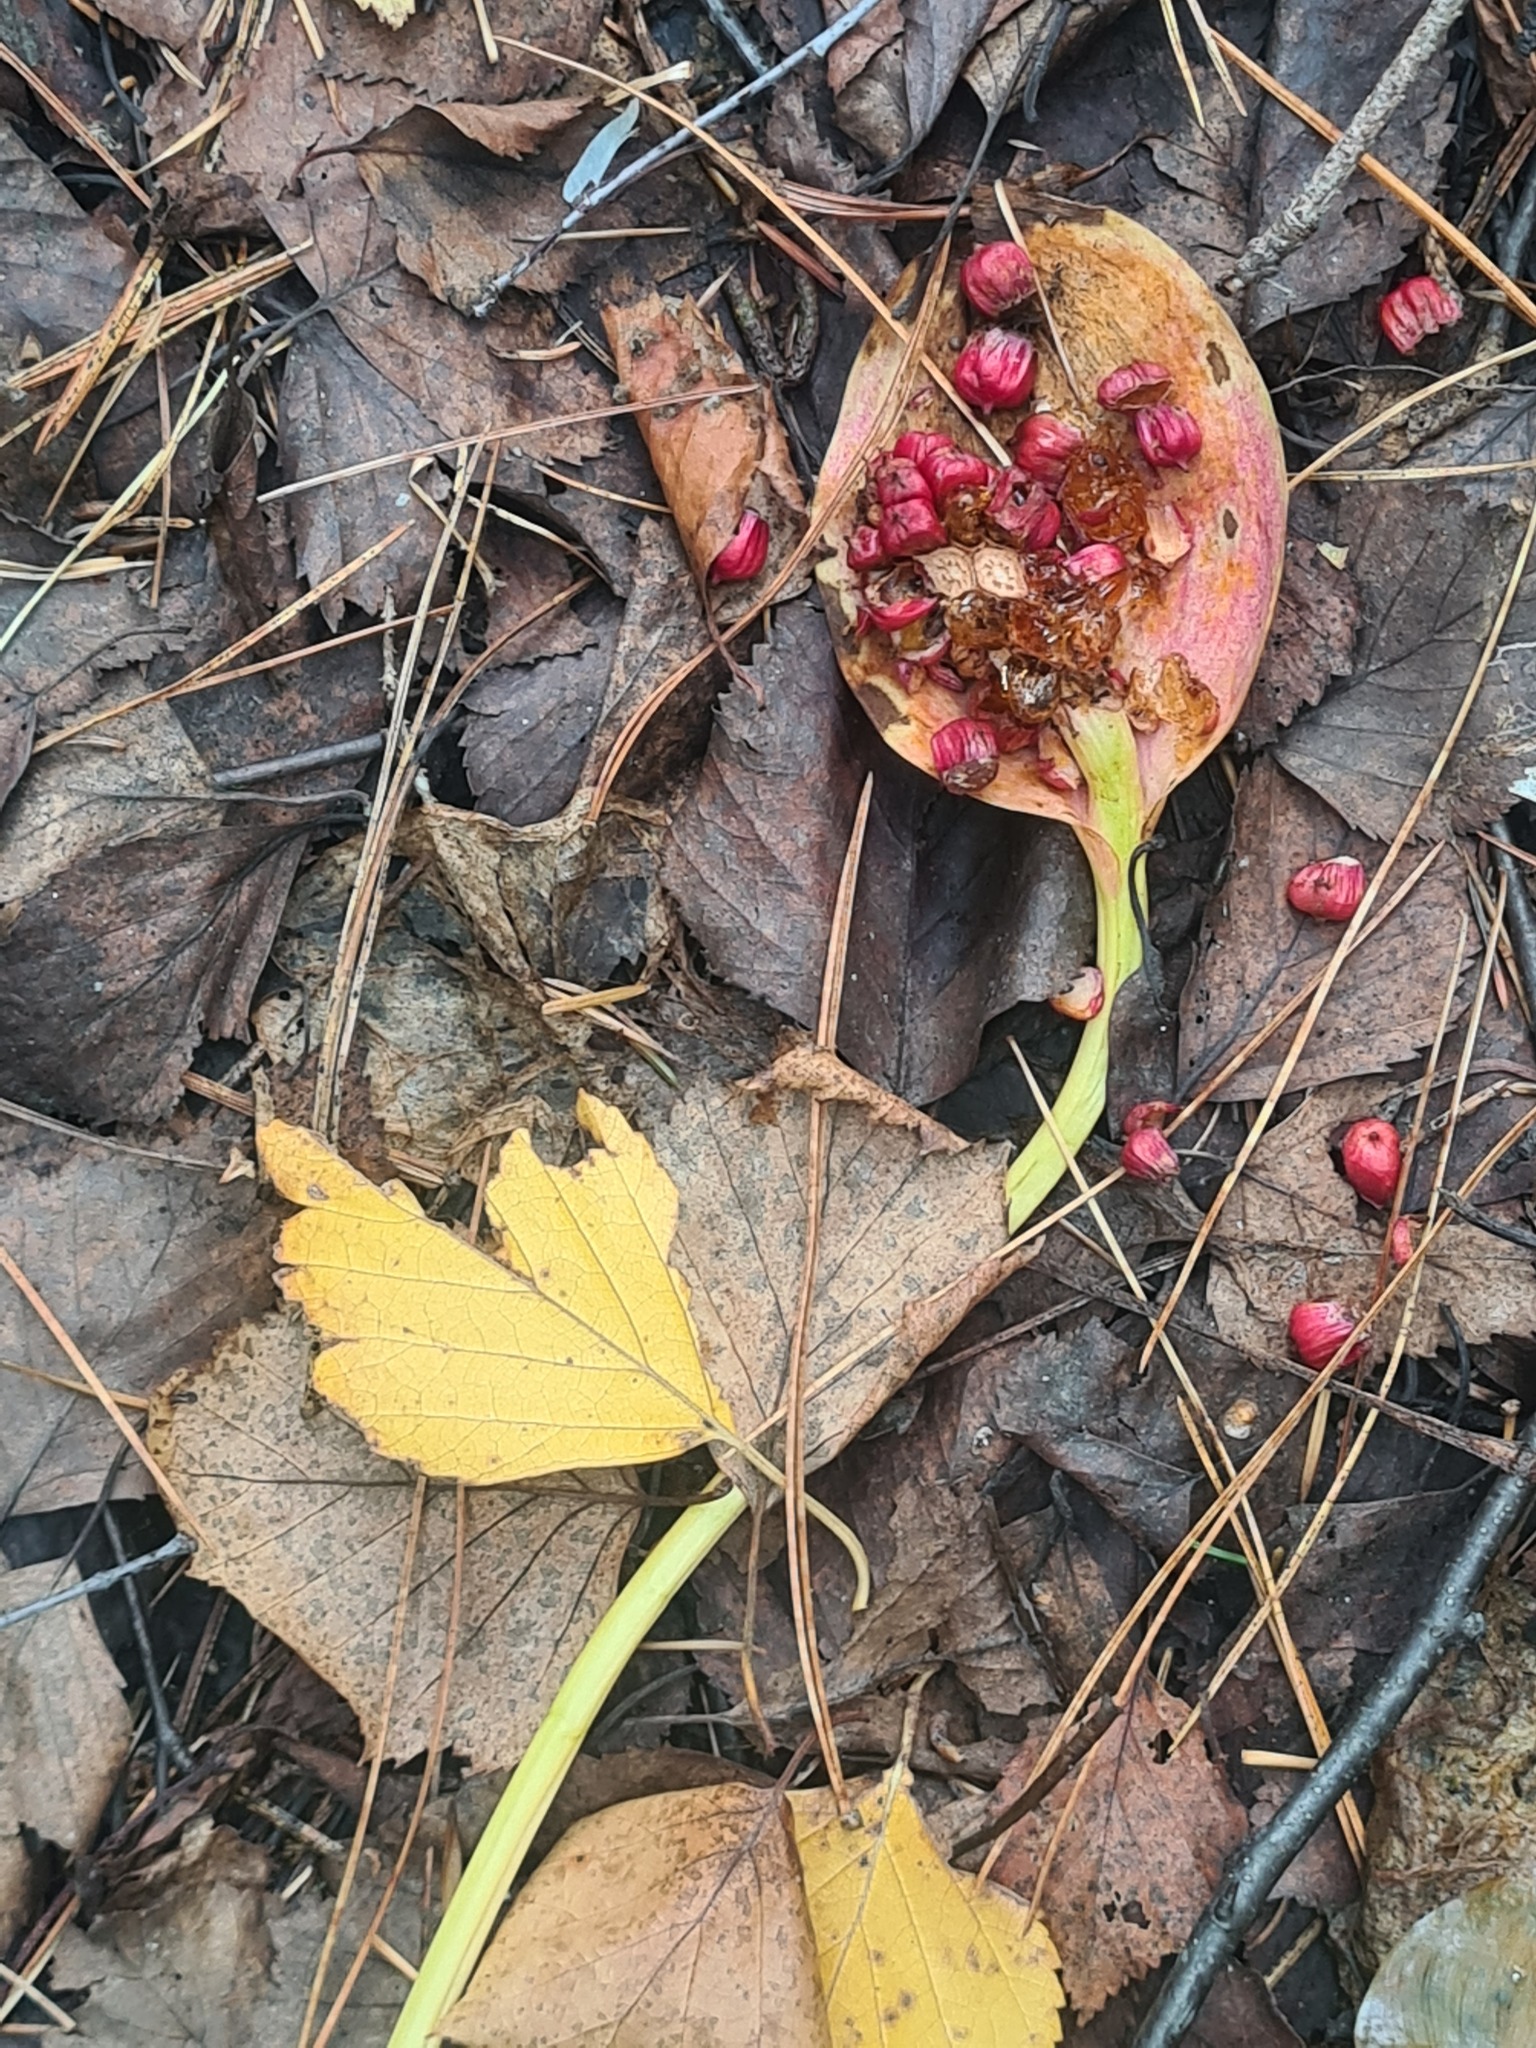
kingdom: Plantae
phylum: Tracheophyta
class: Liliopsida
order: Alismatales
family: Araceae
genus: Calla
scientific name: Calla palustris
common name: Bog arum
